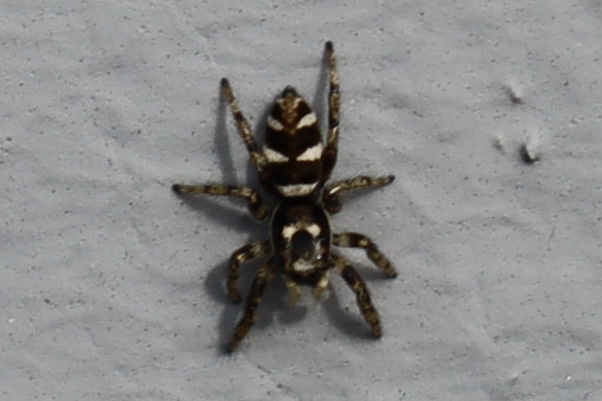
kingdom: Animalia
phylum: Arthropoda
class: Arachnida
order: Araneae
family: Salticidae
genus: Salticus
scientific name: Salticus scenicus
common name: Zebra jumper
